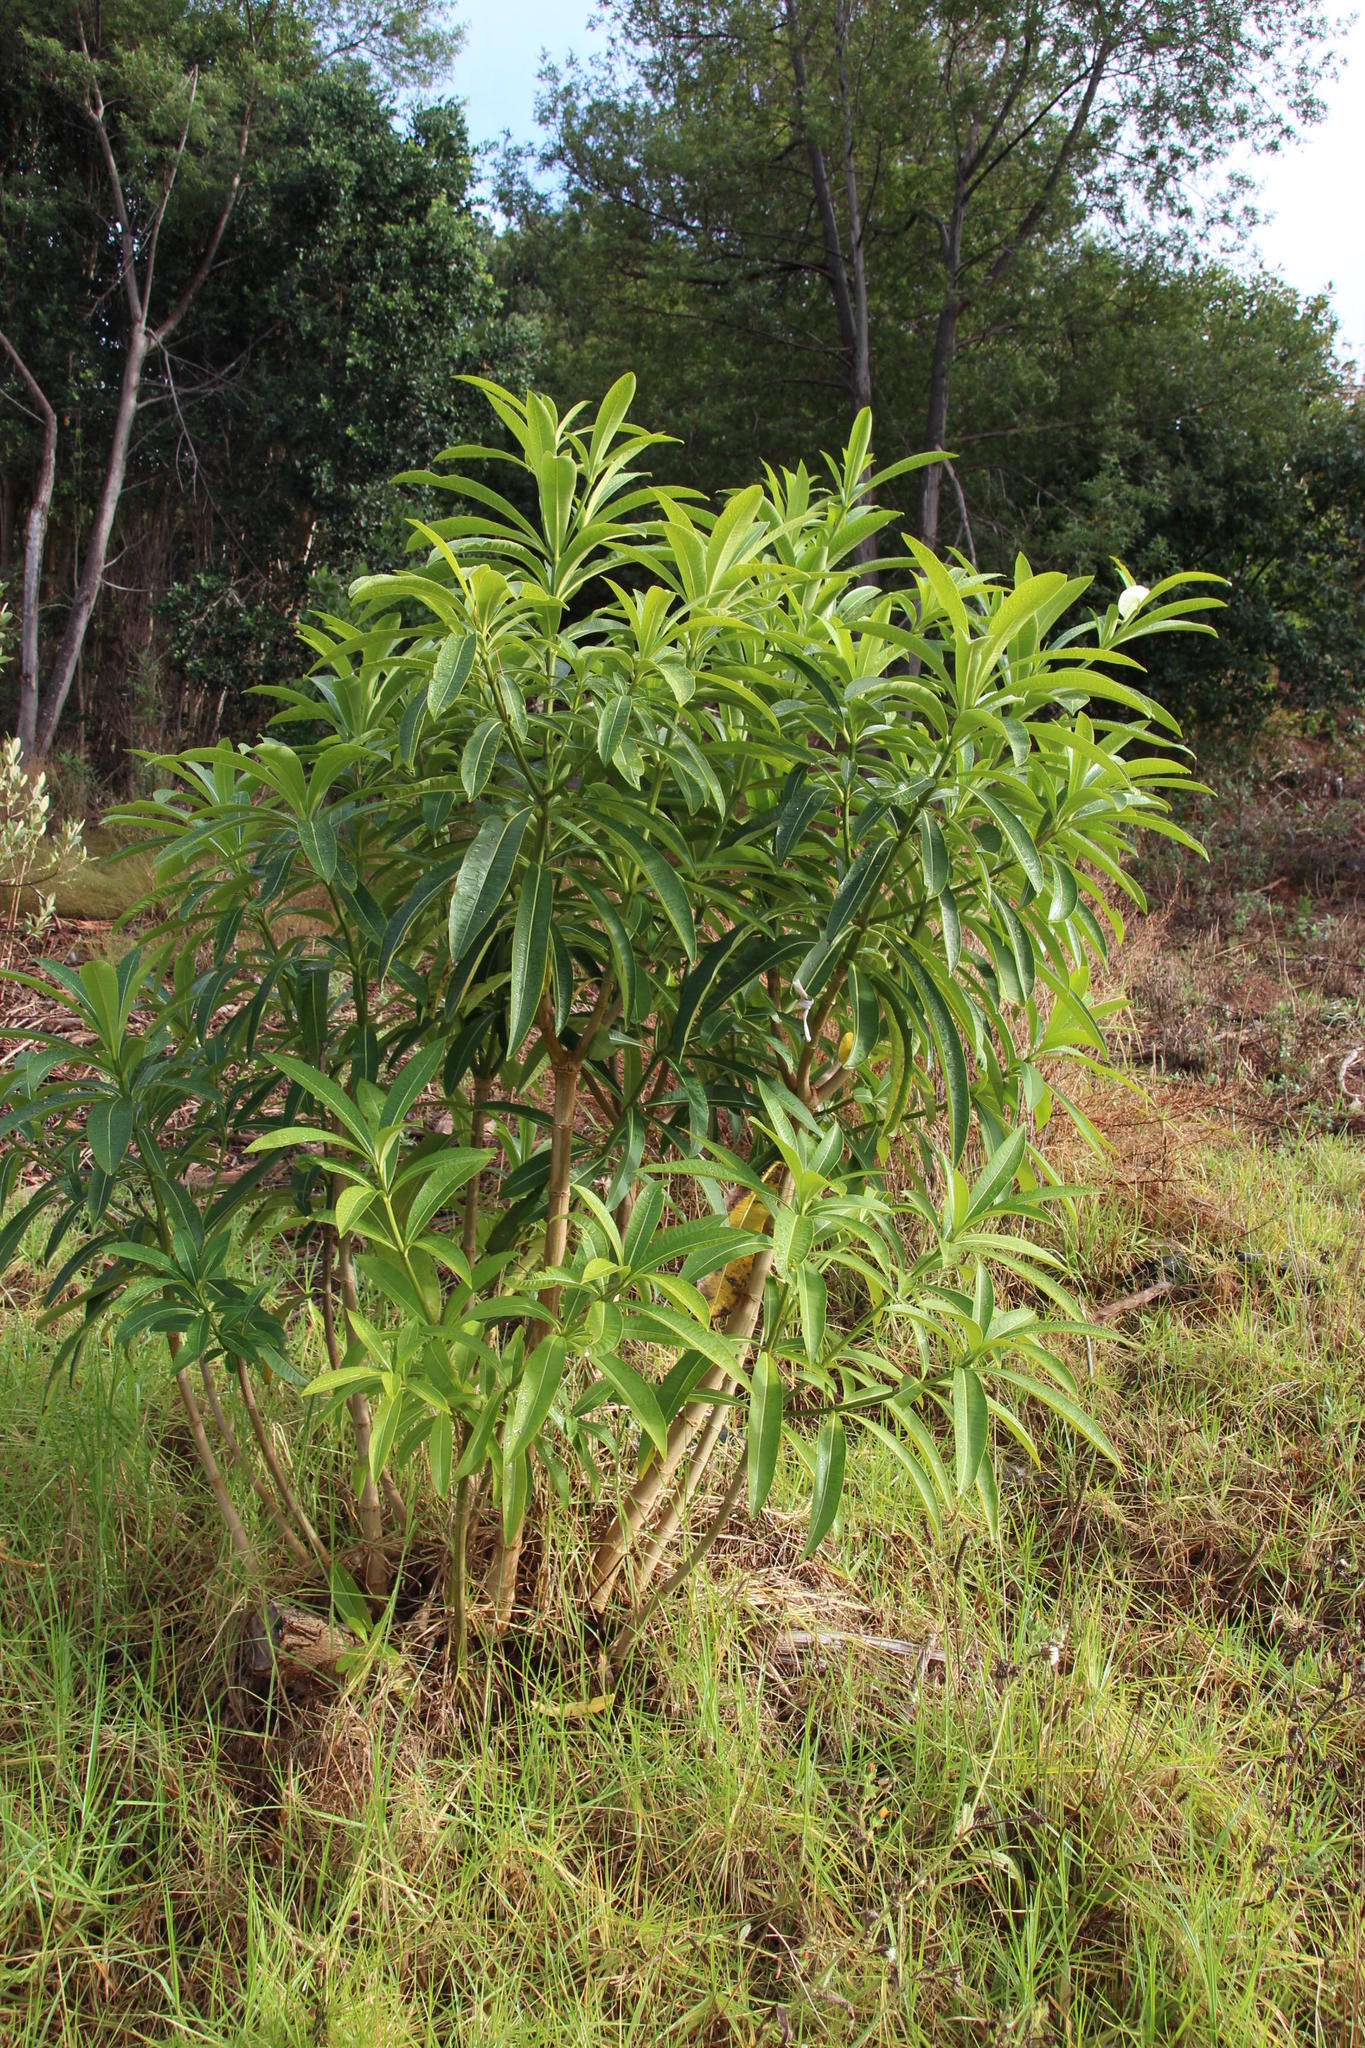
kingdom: Plantae
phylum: Tracheophyta
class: Magnoliopsida
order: Gentianales
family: Apocynaceae
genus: Rauvolfia
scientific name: Rauvolfia caffra
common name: Quininetree
